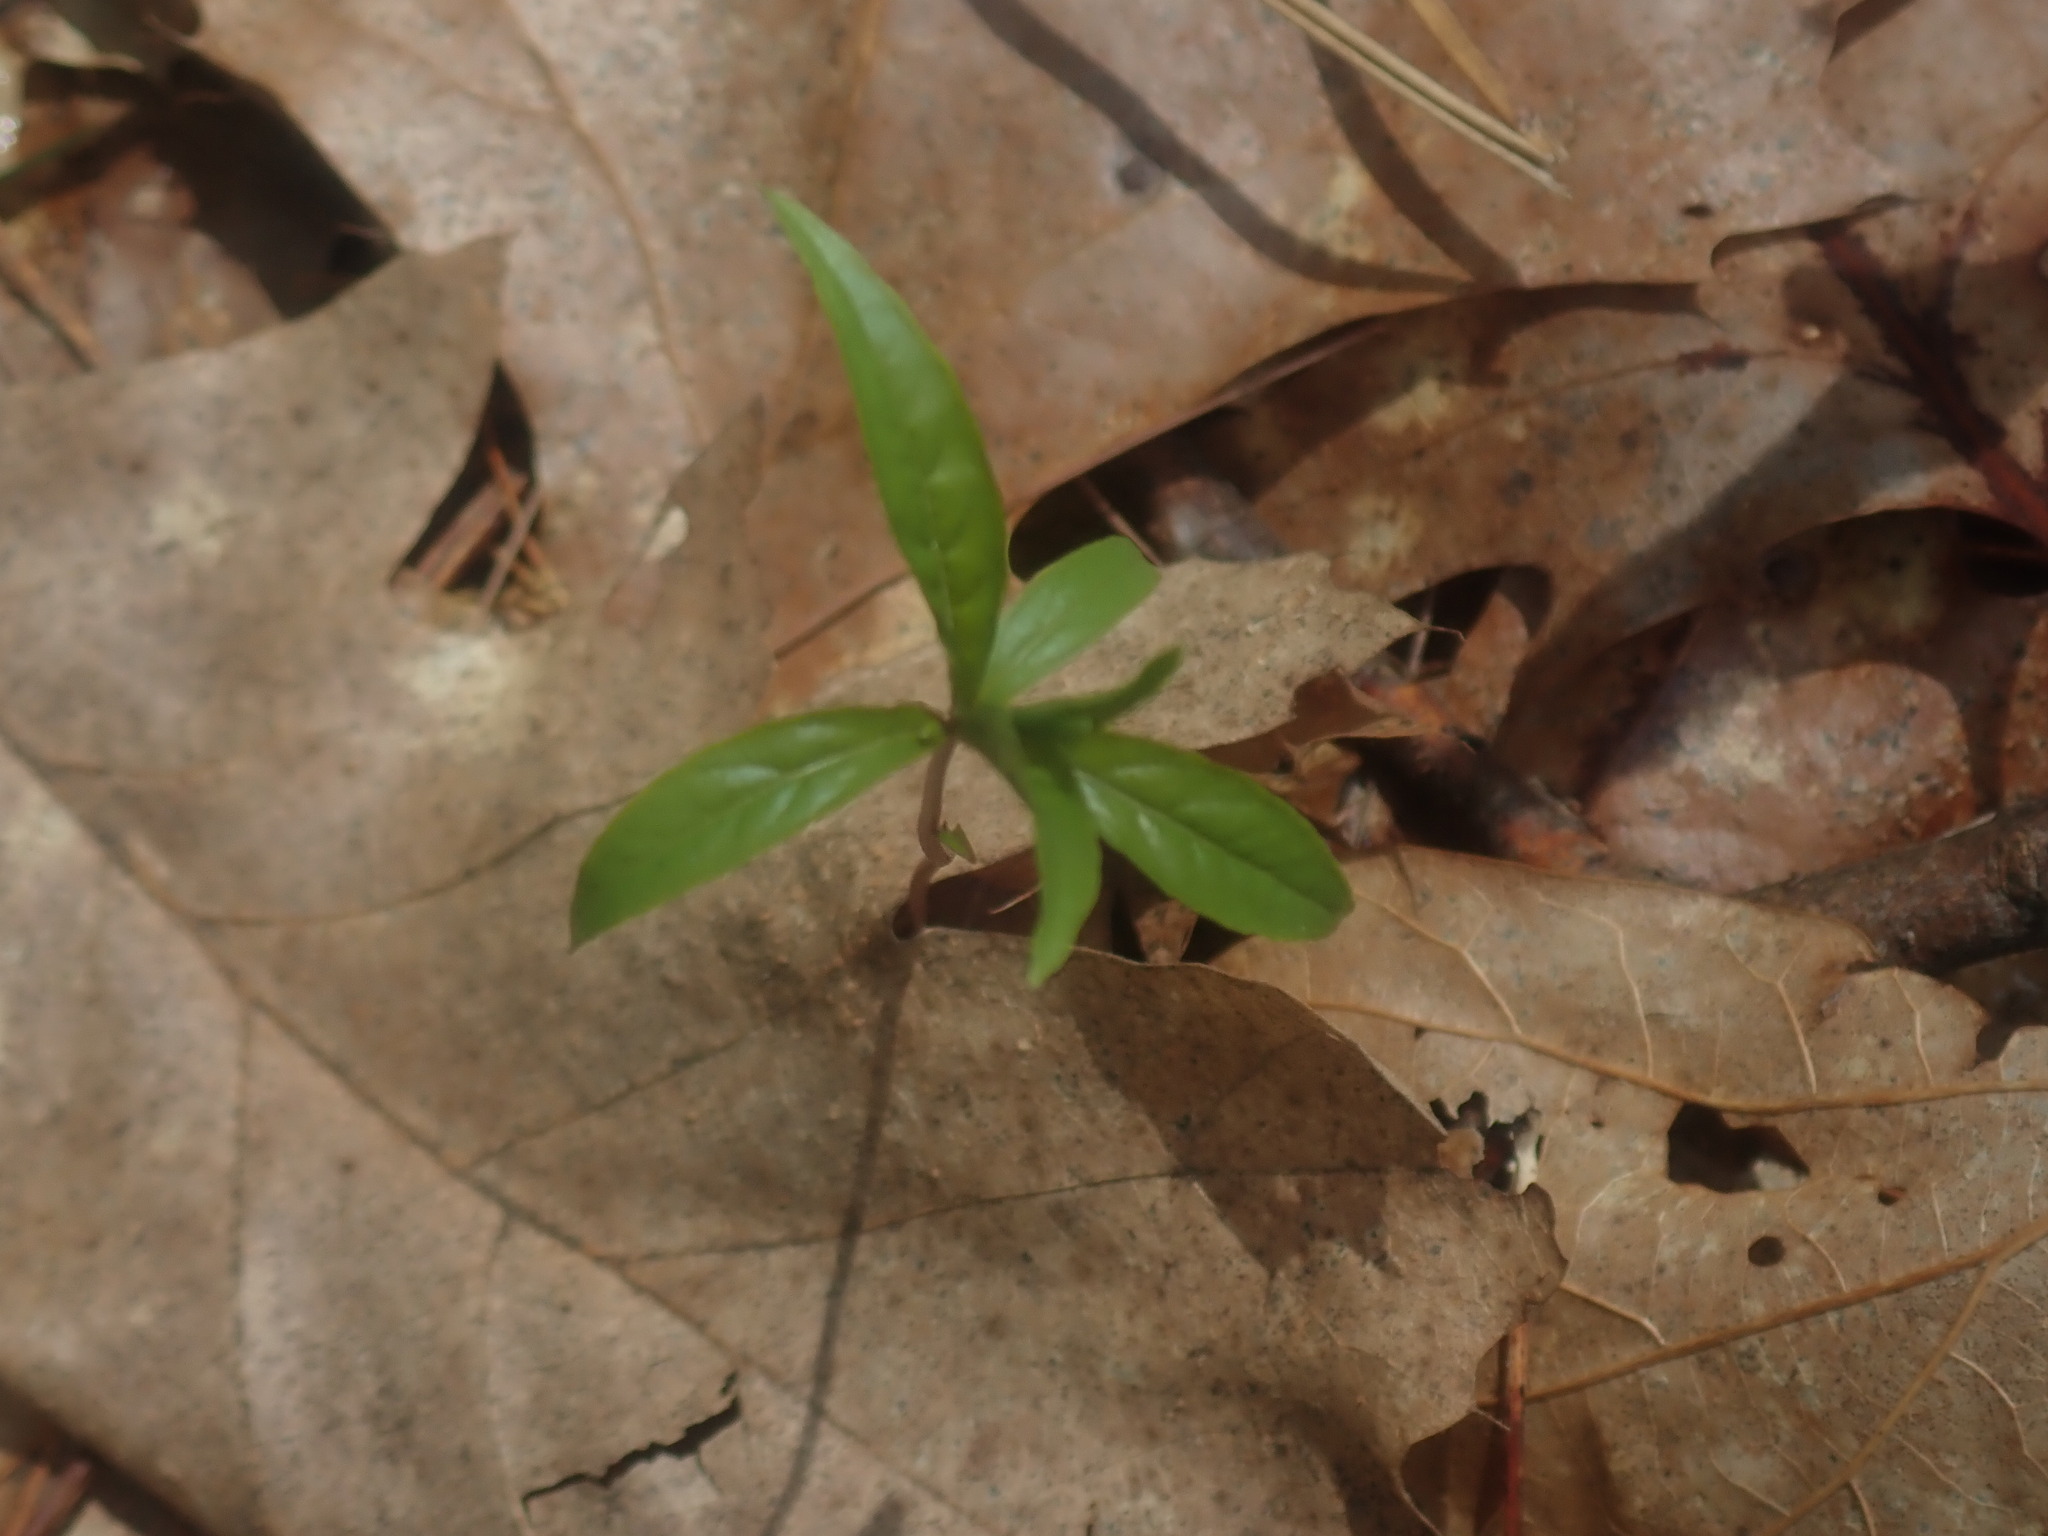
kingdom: Plantae
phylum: Tracheophyta
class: Magnoliopsida
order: Ericales
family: Primulaceae
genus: Lysimachia
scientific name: Lysimachia borealis
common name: American starflower
